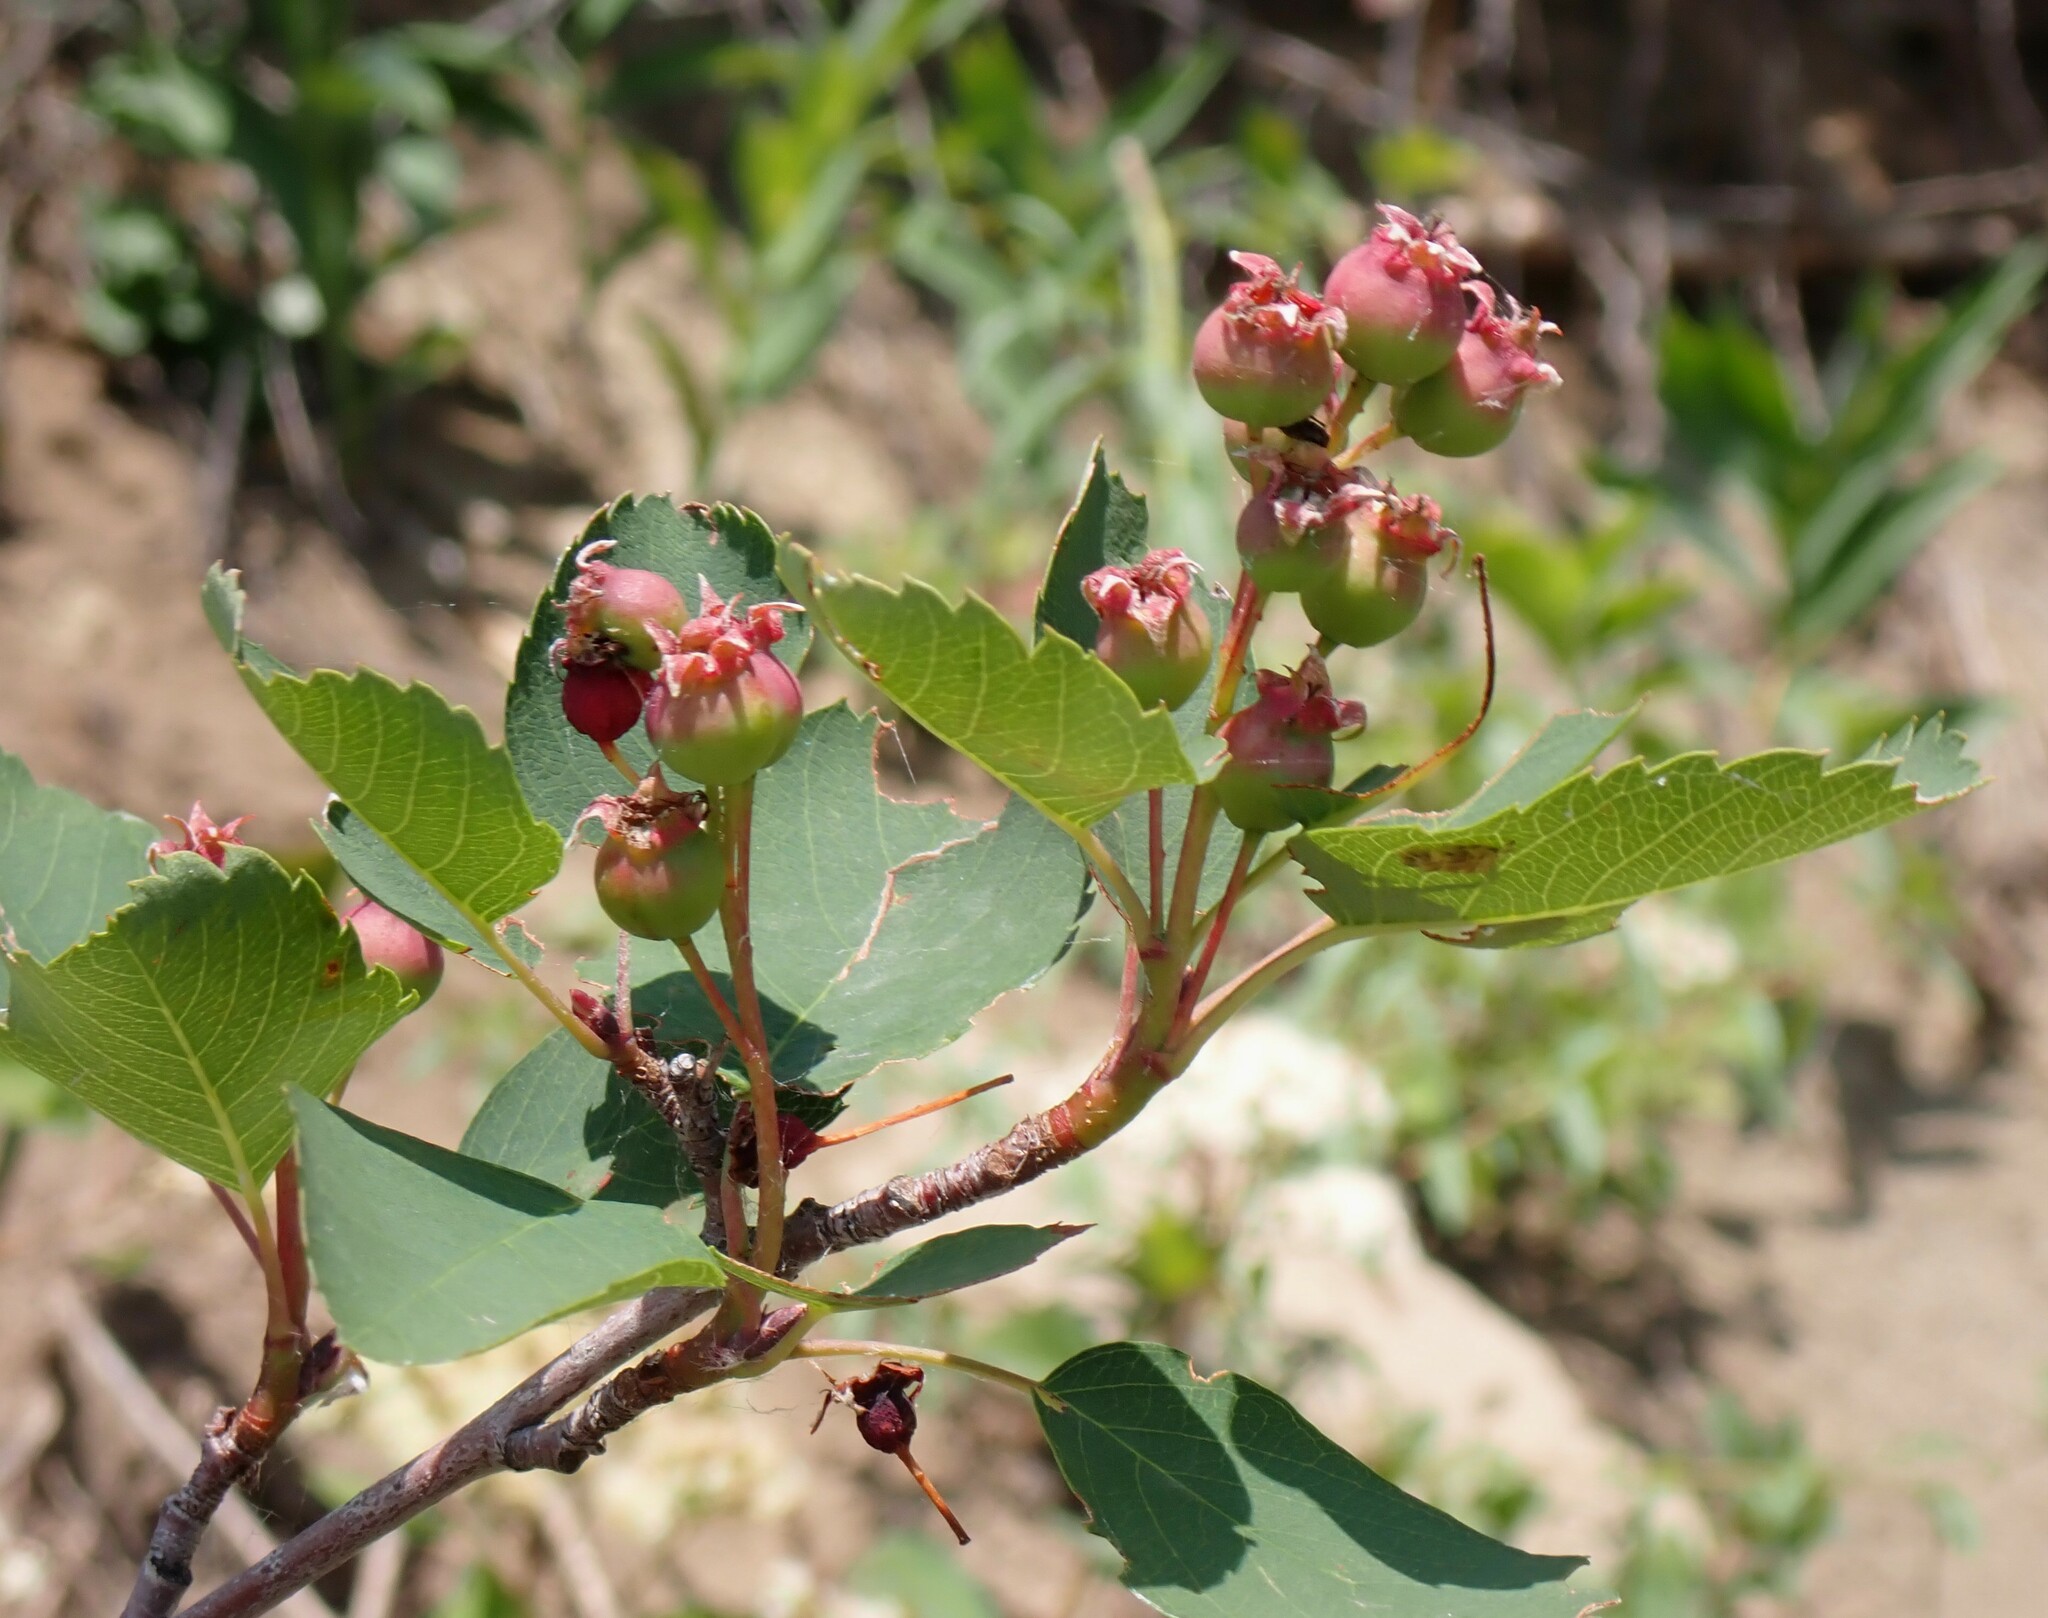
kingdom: Plantae
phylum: Tracheophyta
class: Magnoliopsida
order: Rosales
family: Rosaceae
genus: Amelanchier
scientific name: Amelanchier alnifolia
